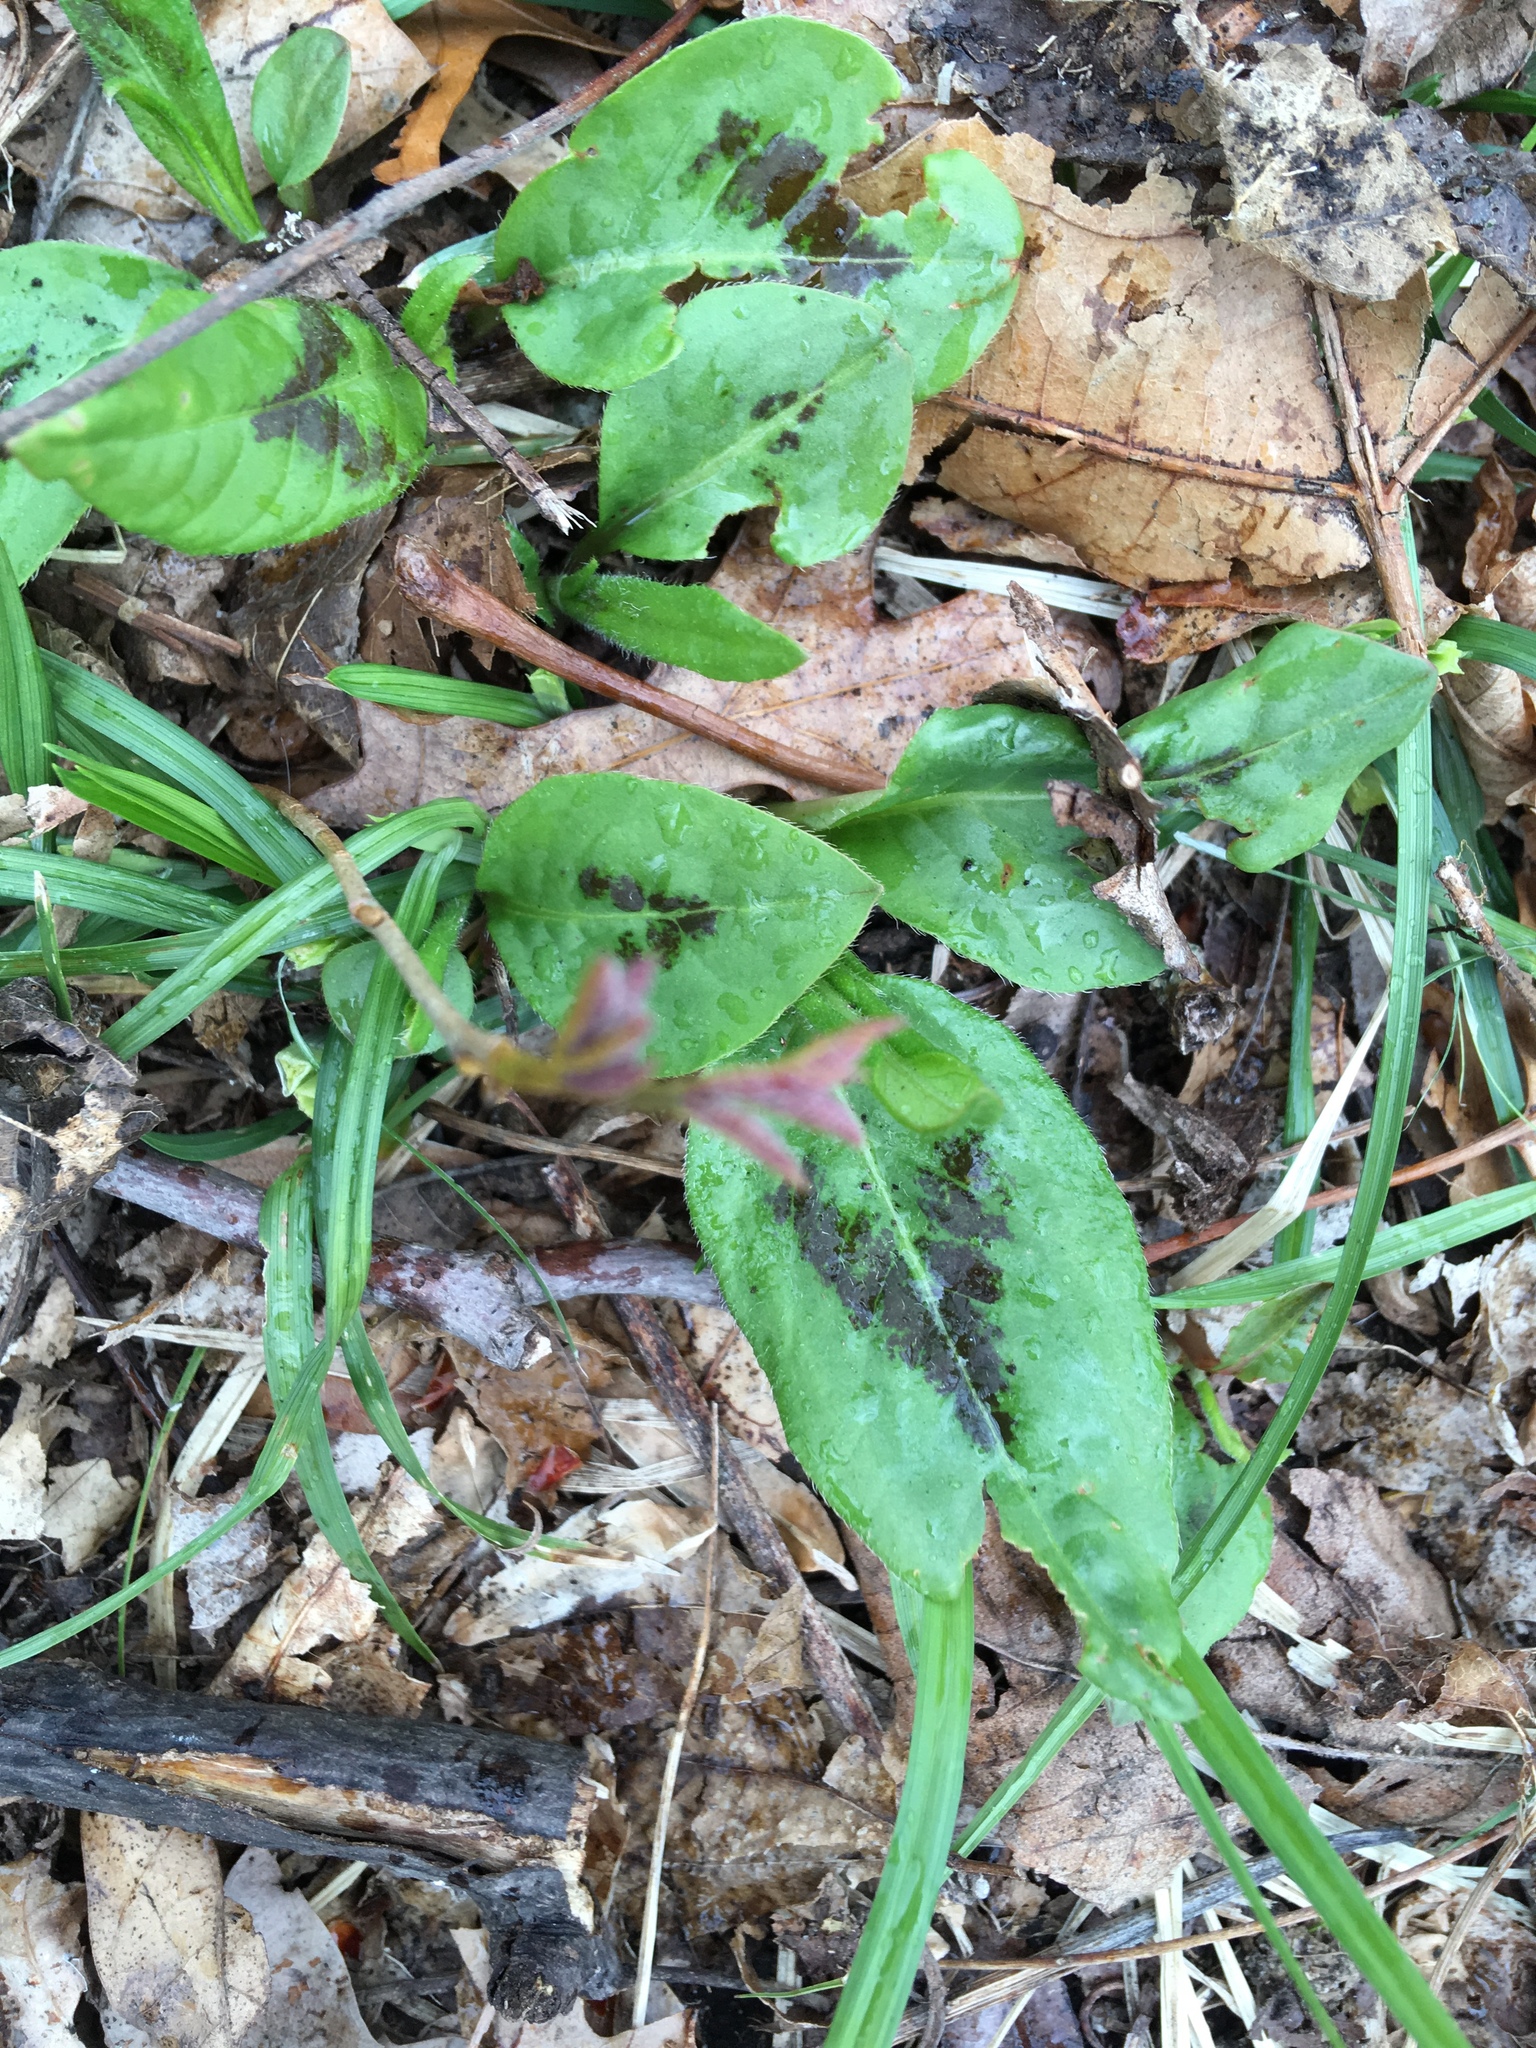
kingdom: Plantae
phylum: Tracheophyta
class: Magnoliopsida
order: Caryophyllales
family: Polygonaceae
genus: Persicaria
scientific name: Persicaria virginiana
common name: Jumpseed
